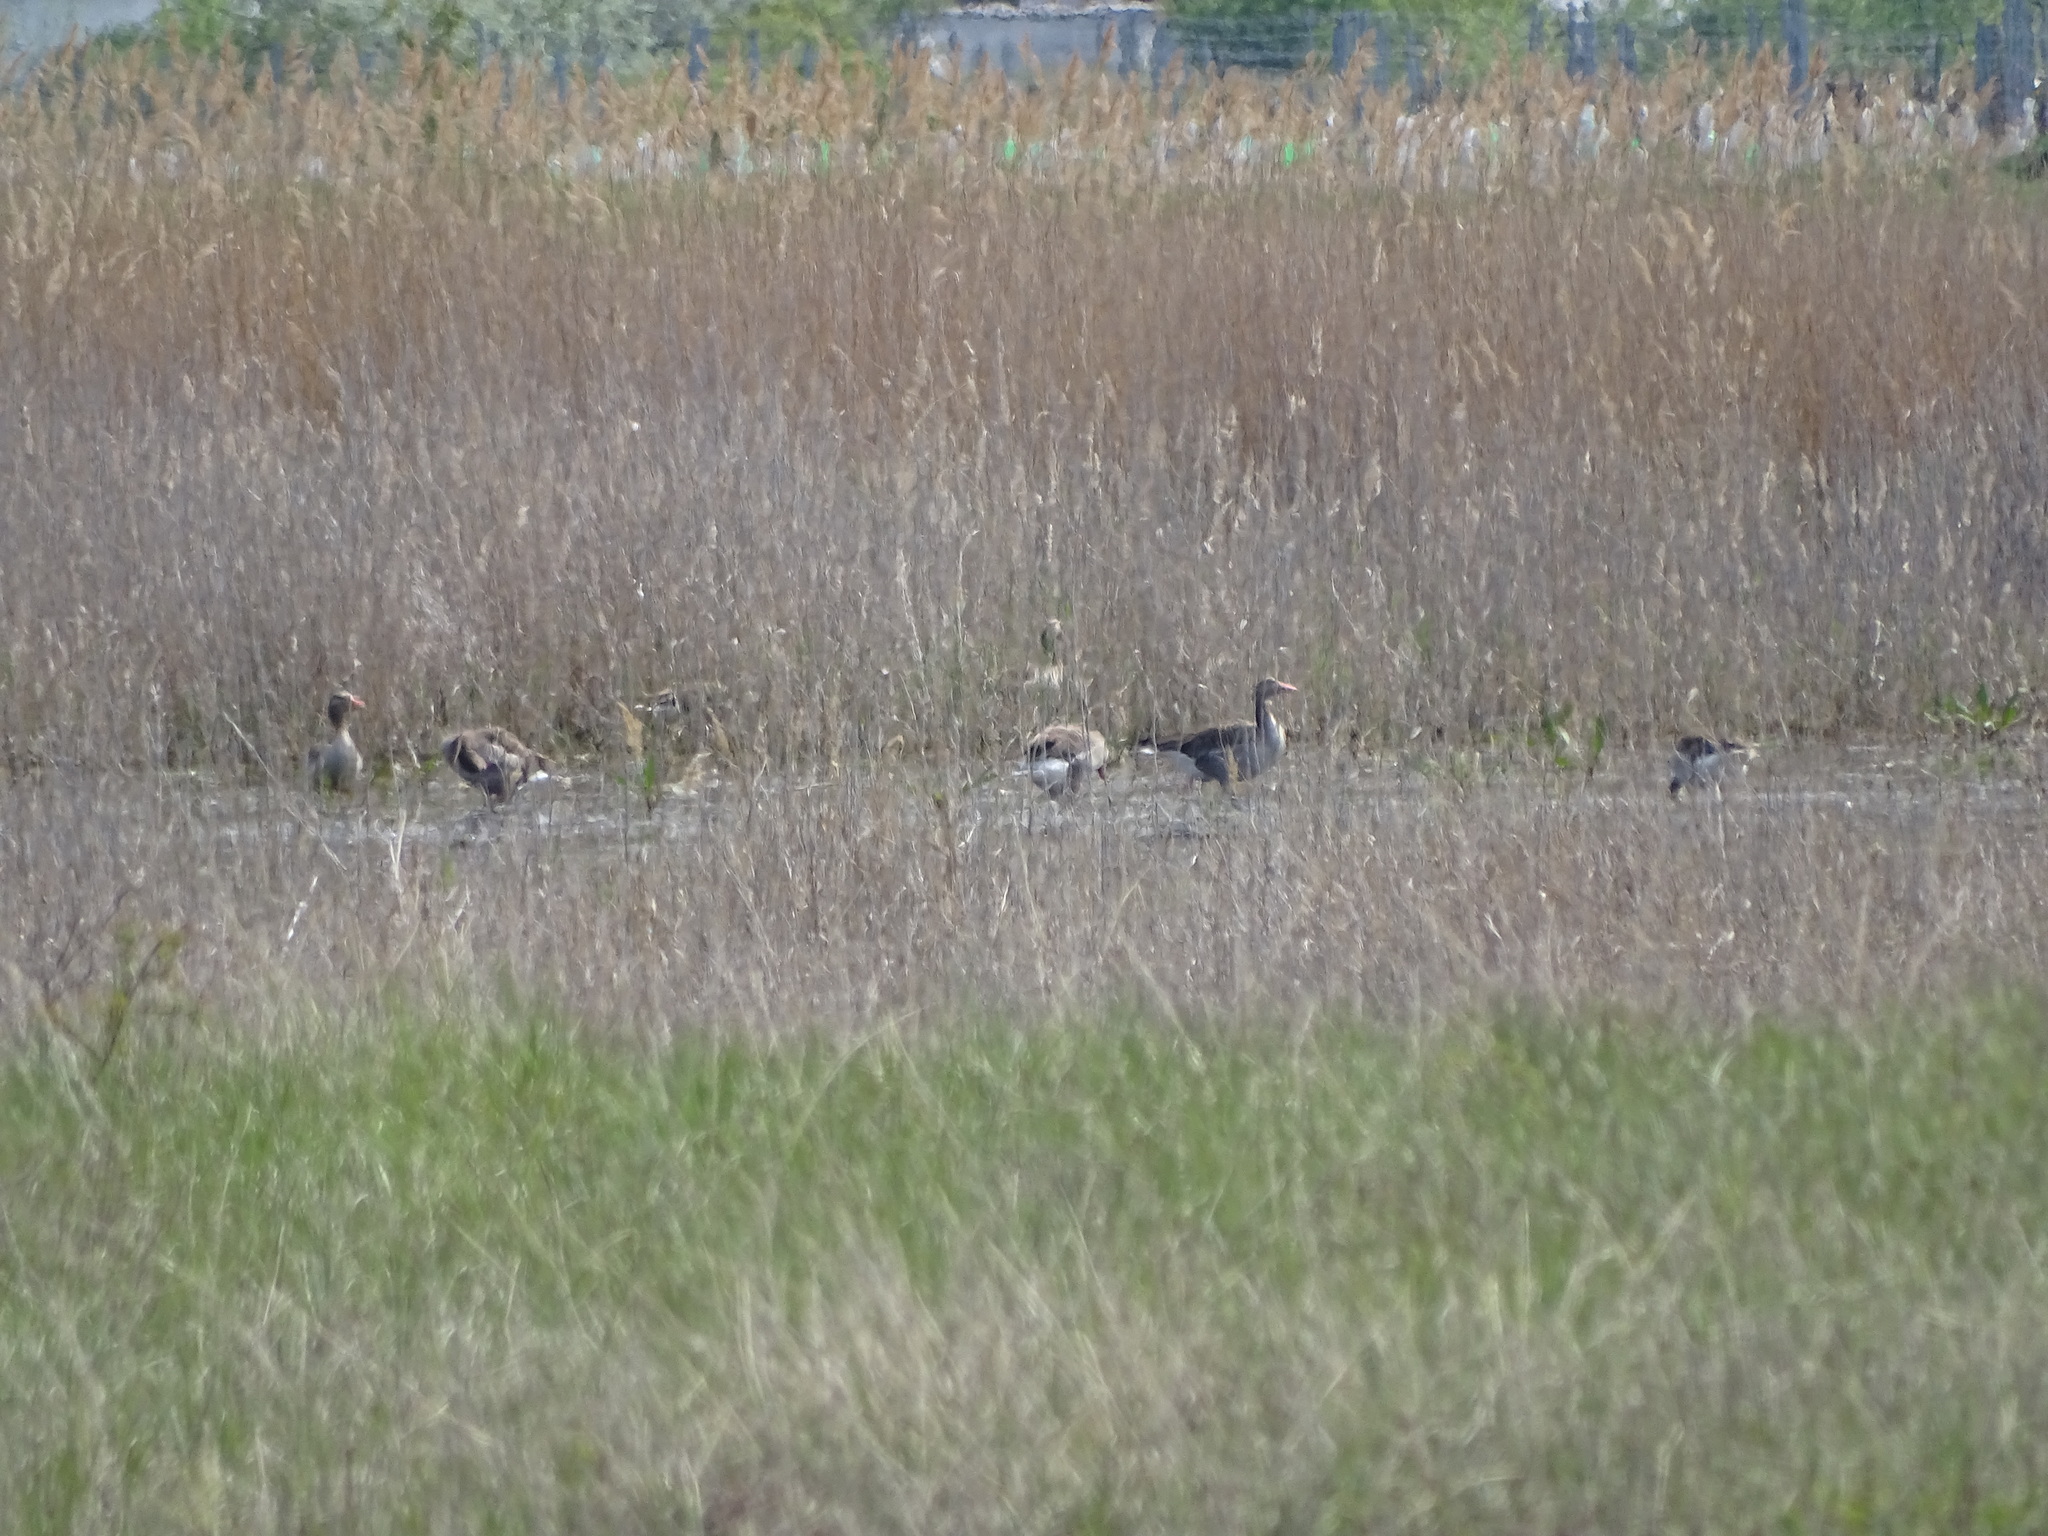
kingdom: Animalia
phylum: Chordata
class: Aves
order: Anseriformes
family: Anatidae
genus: Anser
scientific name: Anser anser
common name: Greylag goose
